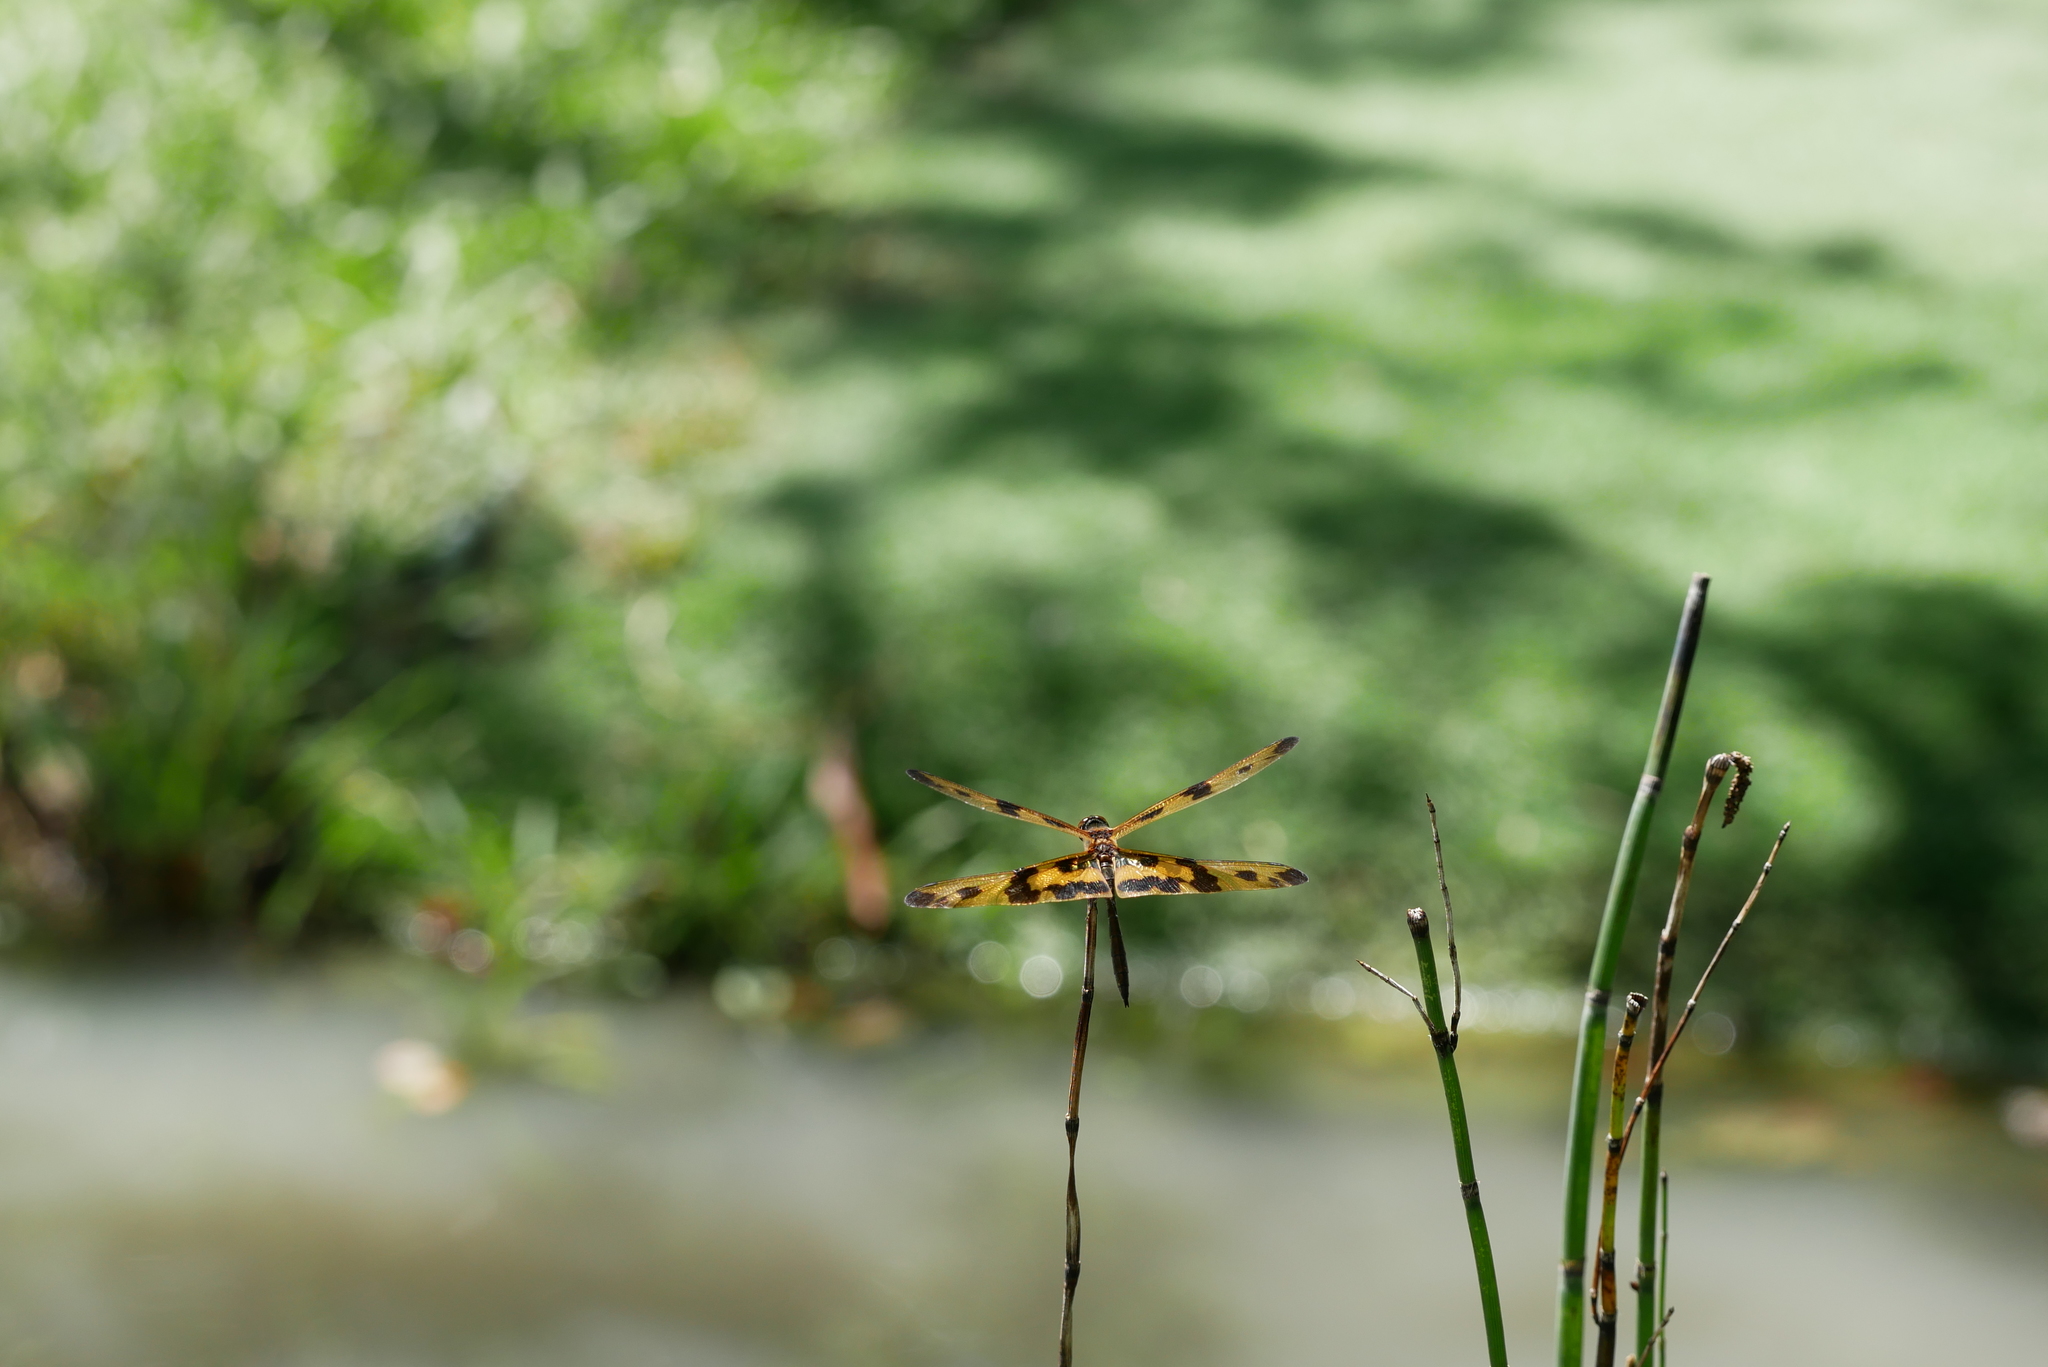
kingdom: Animalia
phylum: Arthropoda
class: Insecta
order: Odonata
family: Libellulidae
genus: Rhyothemis
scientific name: Rhyothemis variegata
